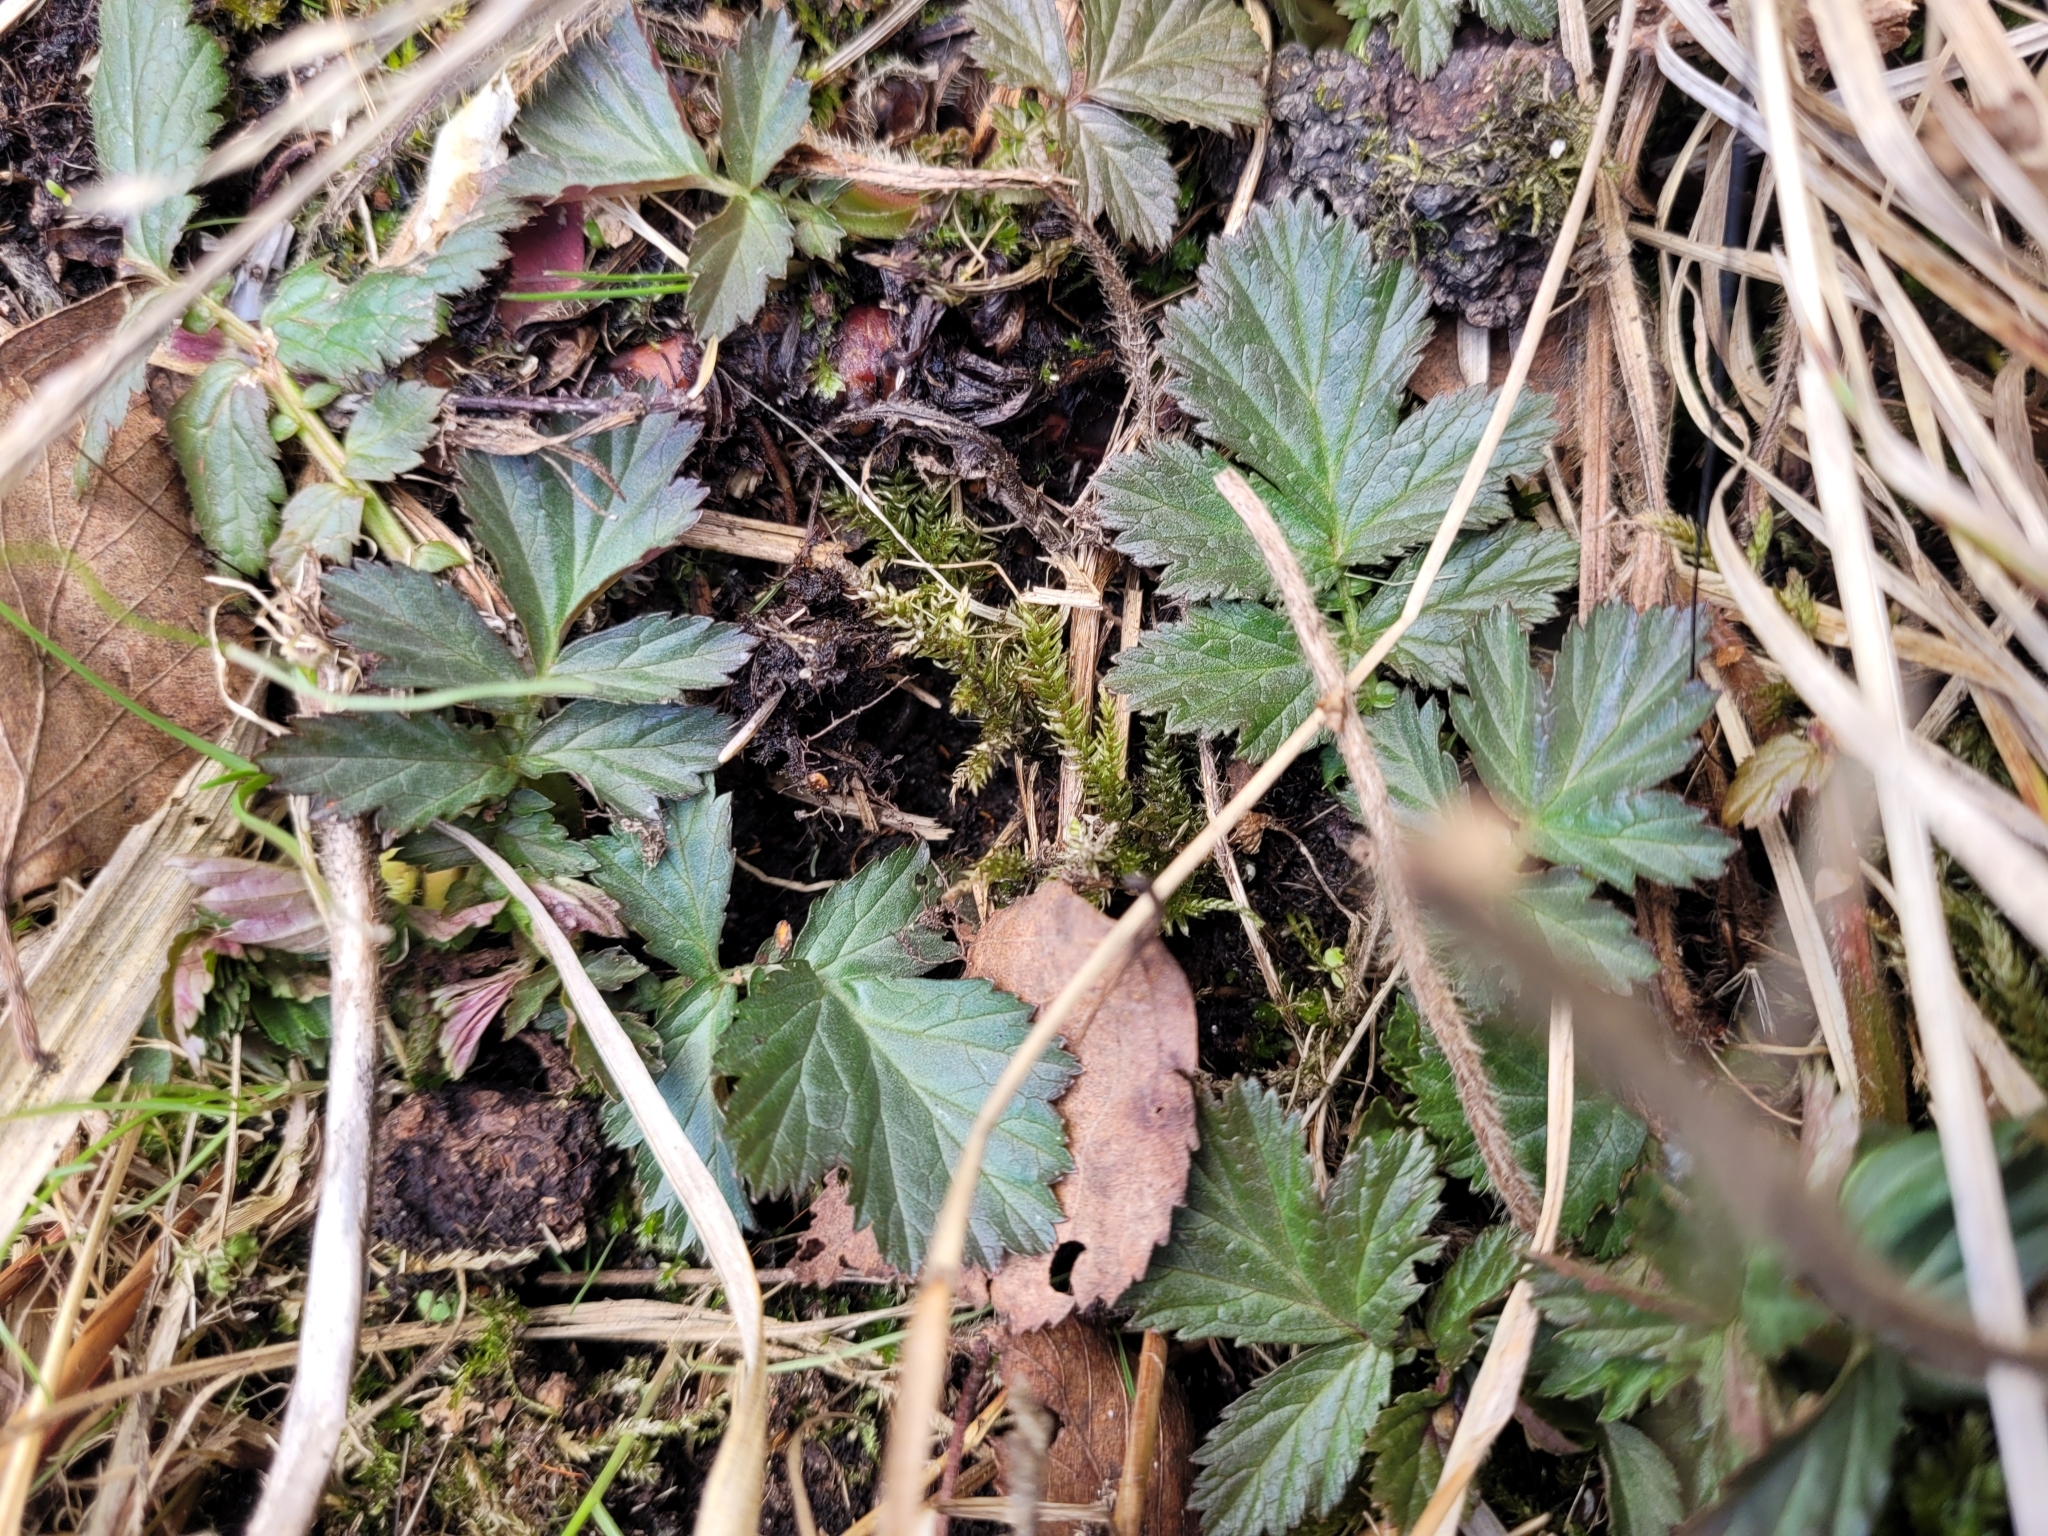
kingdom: Plantae
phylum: Tracheophyta
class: Magnoliopsida
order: Rosales
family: Rosaceae
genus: Geum
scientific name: Geum rivale
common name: Water avens
